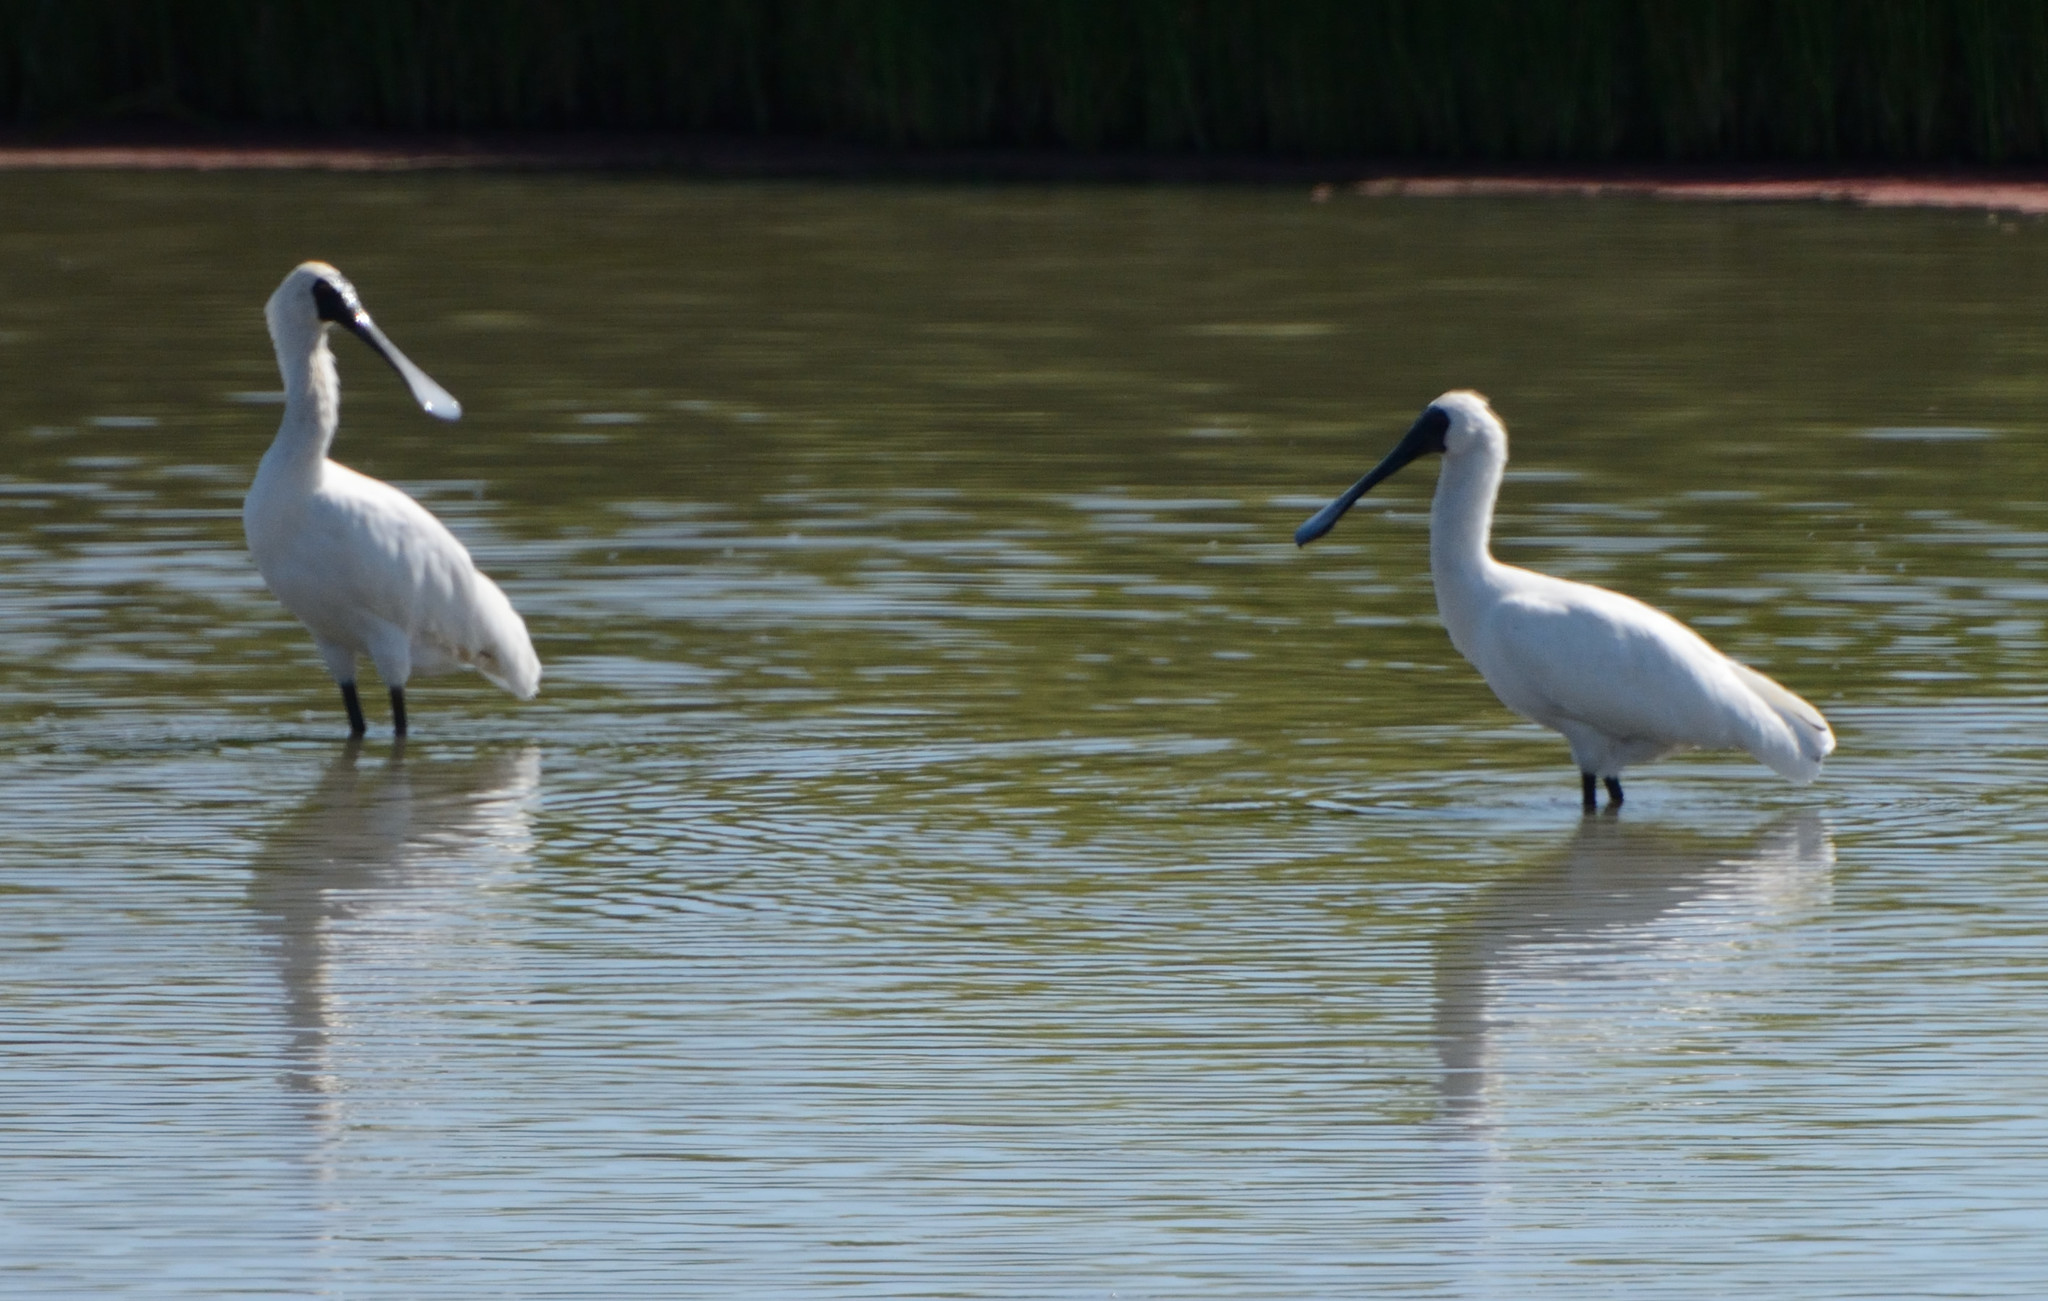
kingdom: Animalia
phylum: Chordata
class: Aves
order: Pelecaniformes
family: Threskiornithidae
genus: Platalea
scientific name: Platalea regia
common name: Royal spoonbill
